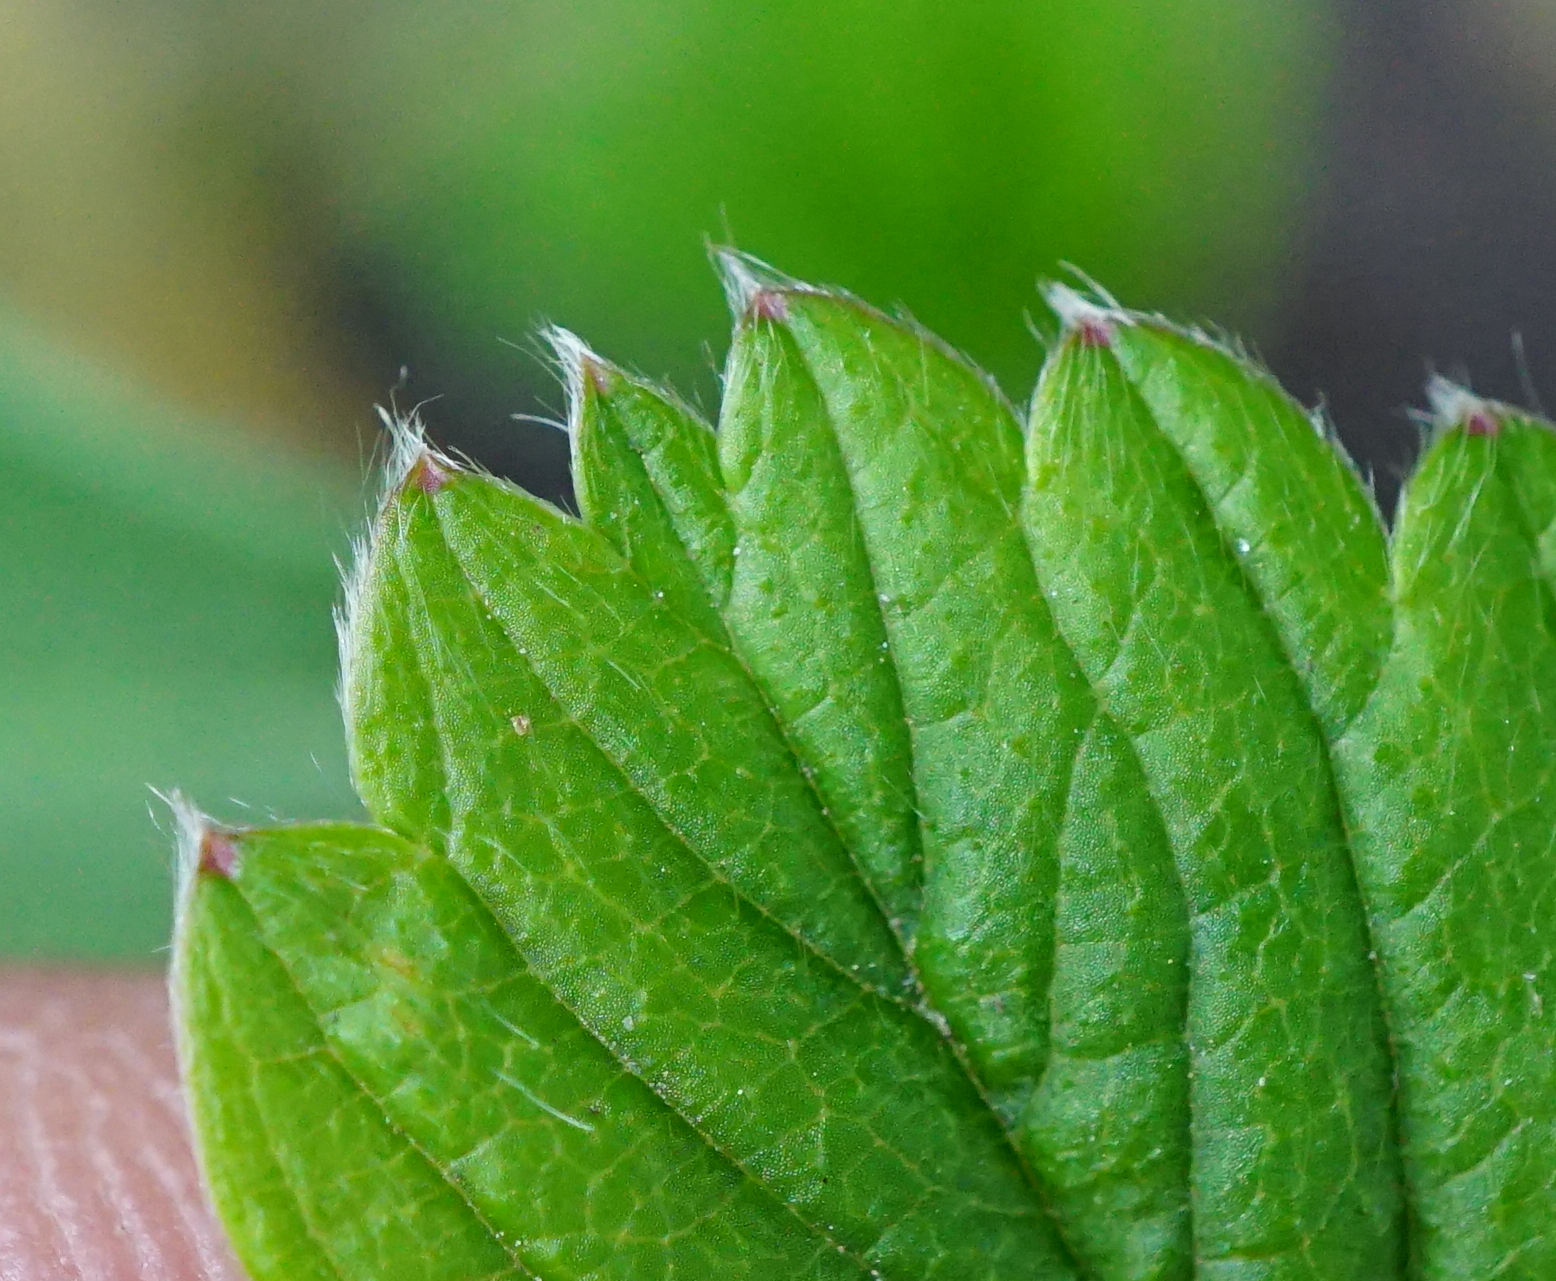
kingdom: Plantae
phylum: Tracheophyta
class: Magnoliopsida
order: Rosales
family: Rosaceae
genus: Fragaria
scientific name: Fragaria viridis
